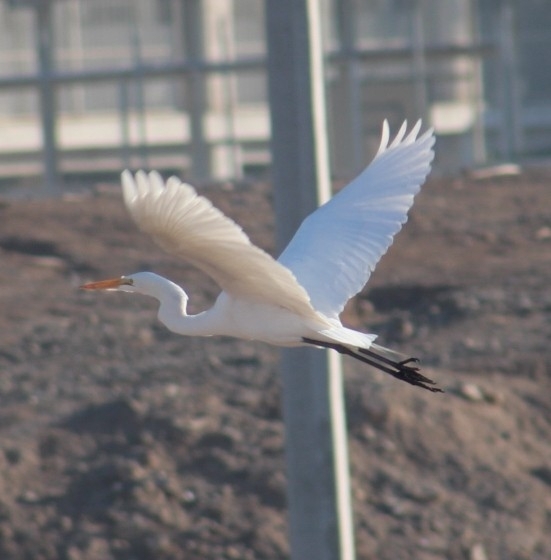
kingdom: Animalia
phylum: Chordata
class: Aves
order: Pelecaniformes
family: Ardeidae
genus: Ardea
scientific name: Ardea alba
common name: Great egret
